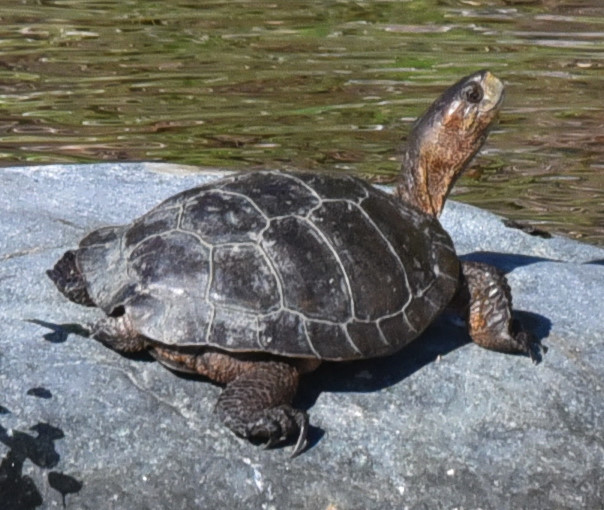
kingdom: Animalia
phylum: Chordata
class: Testudines
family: Emydidae
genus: Actinemys
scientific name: Actinemys marmorata
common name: Western pond turtle
